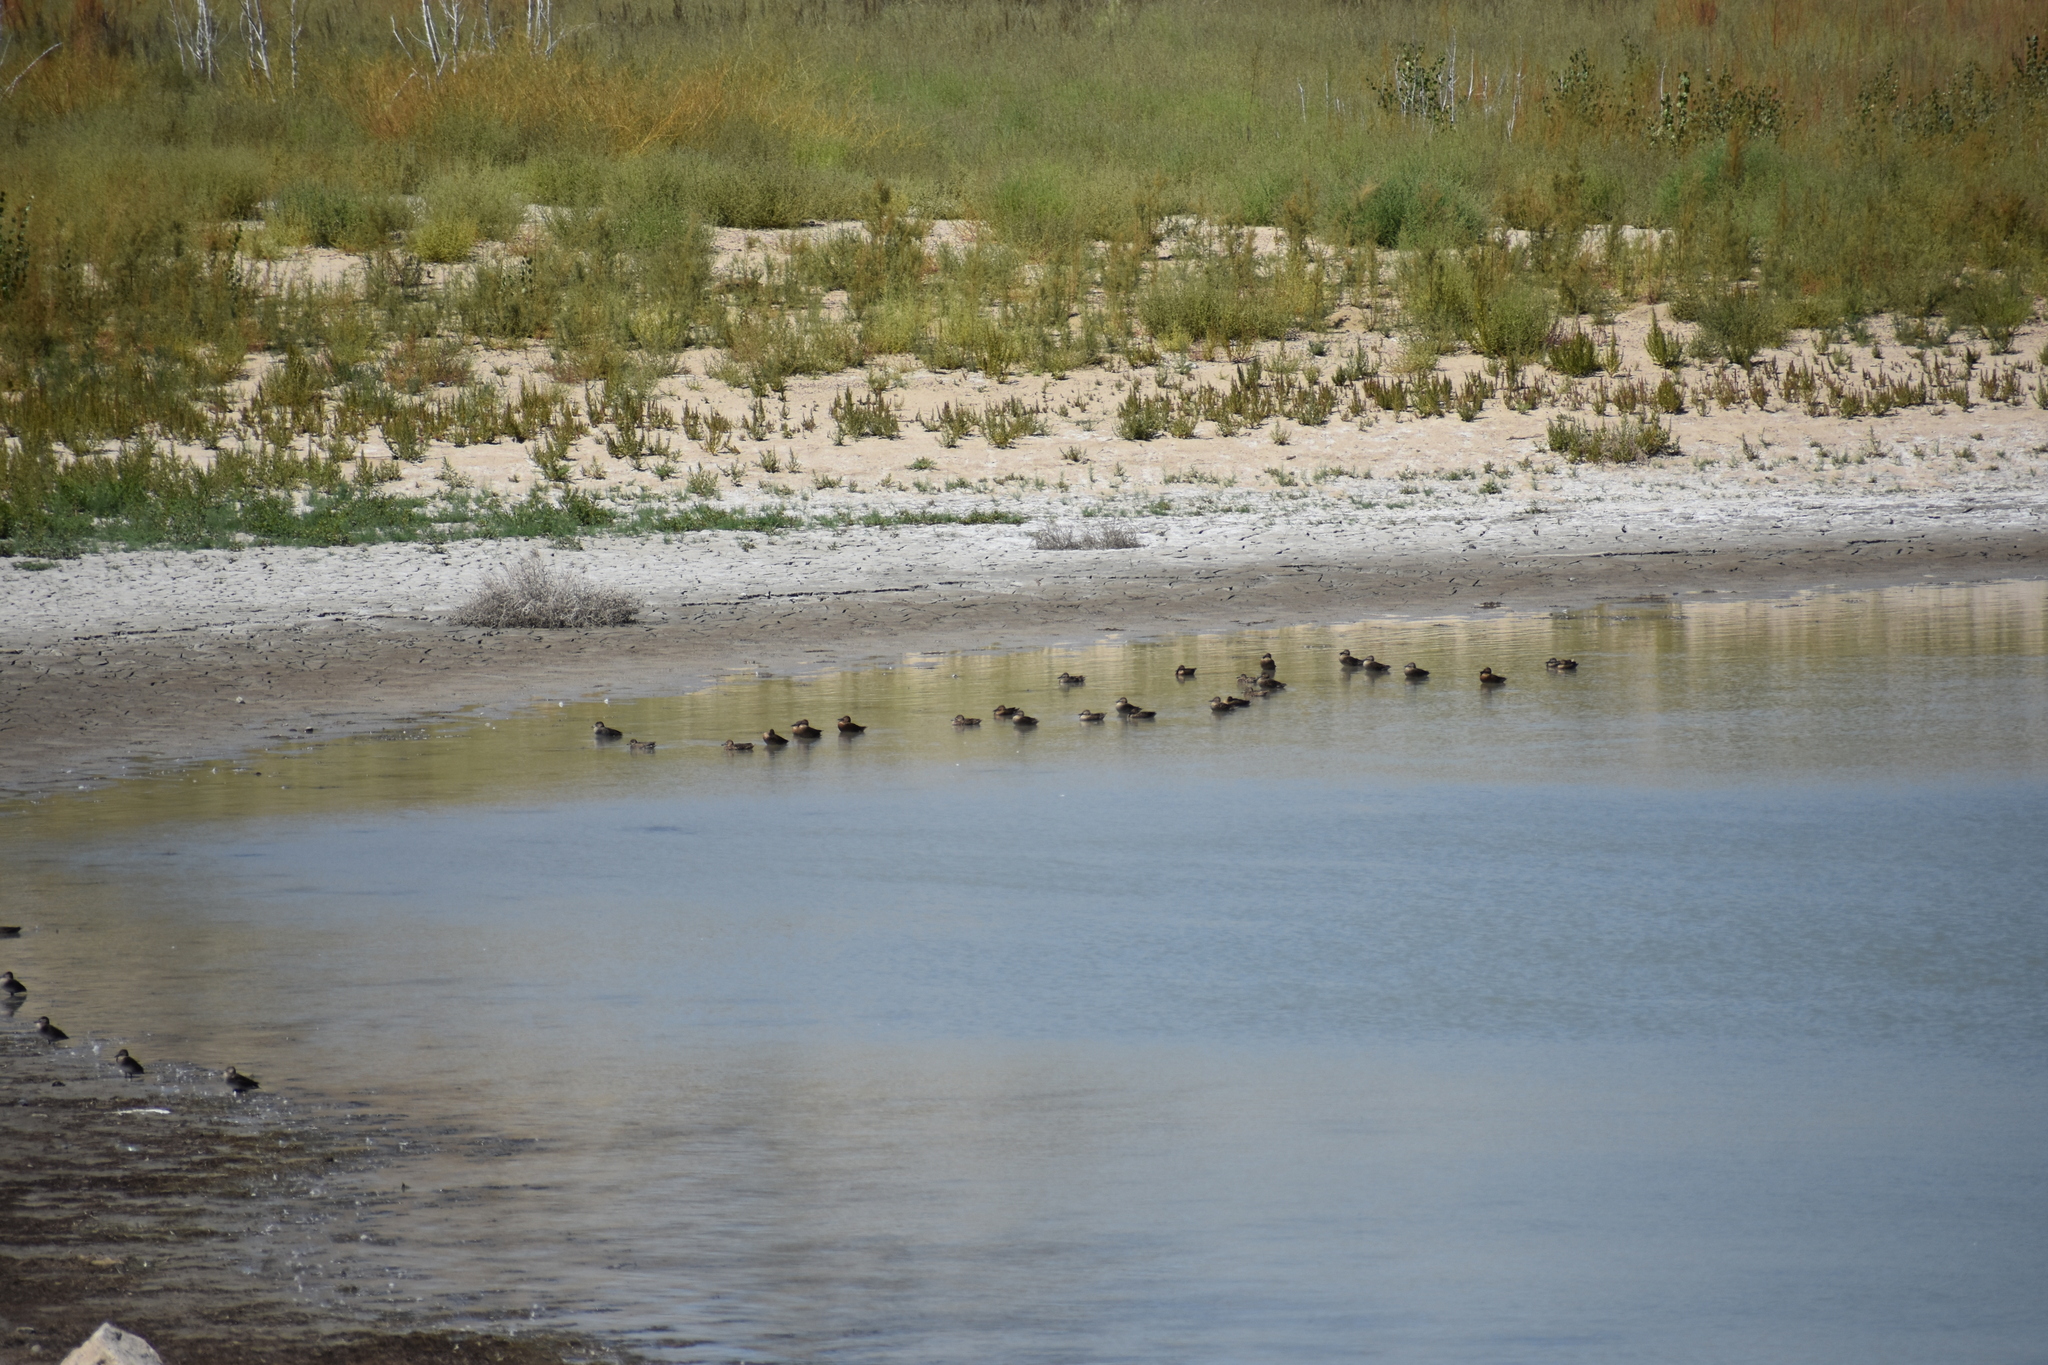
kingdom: Animalia
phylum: Chordata
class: Aves
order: Anseriformes
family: Anatidae
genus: Spatula
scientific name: Spatula discors
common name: Blue-winged teal
